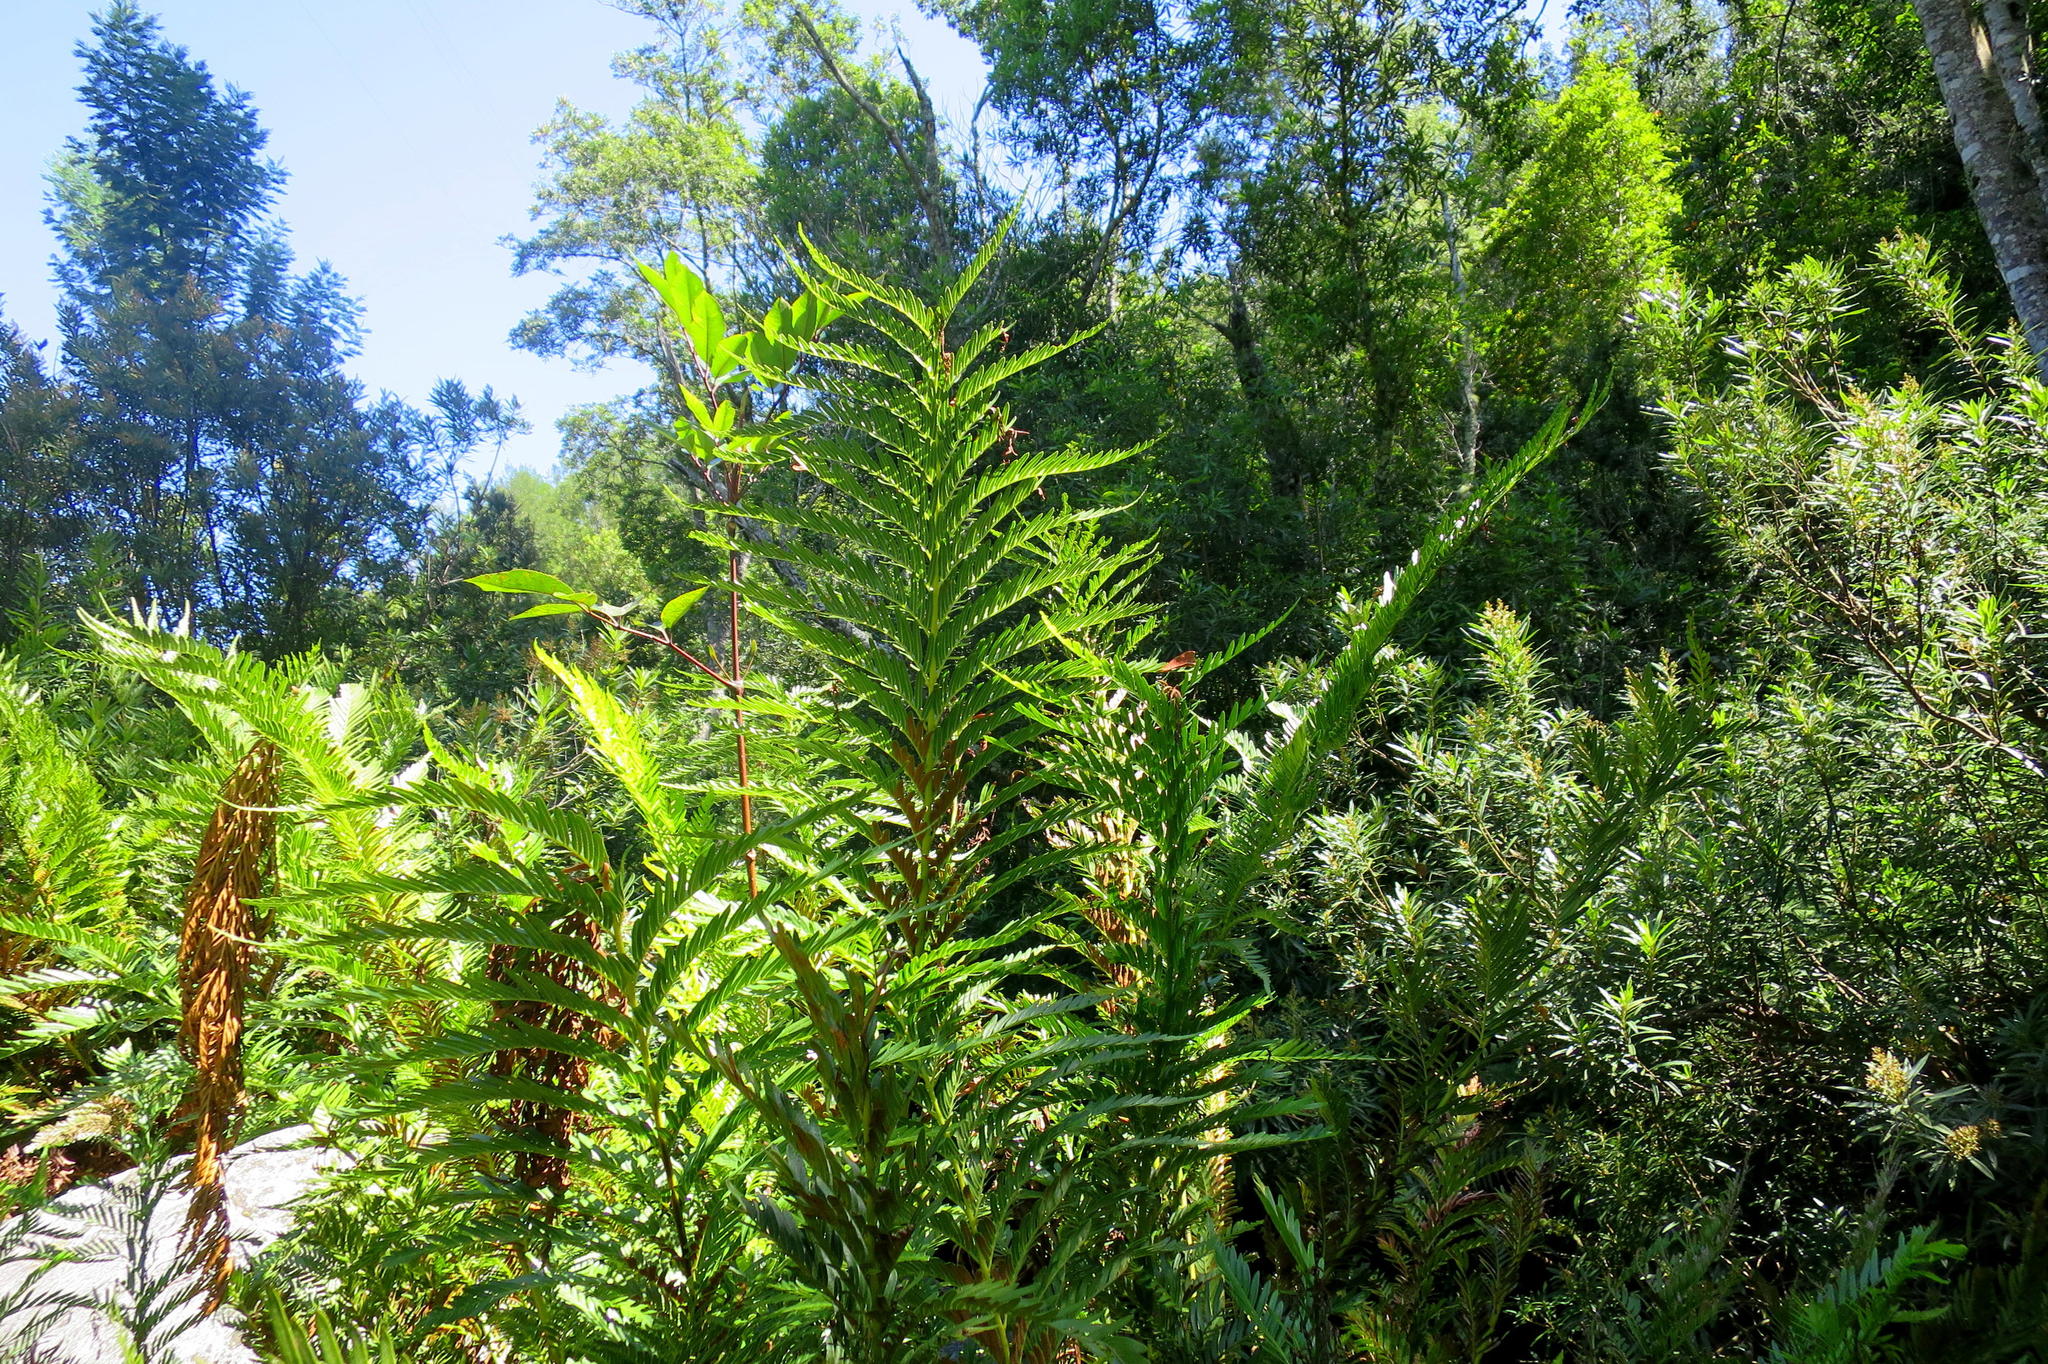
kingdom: Plantae
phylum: Tracheophyta
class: Polypodiopsida
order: Osmundales
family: Osmundaceae
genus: Todea
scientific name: Todea barbara
